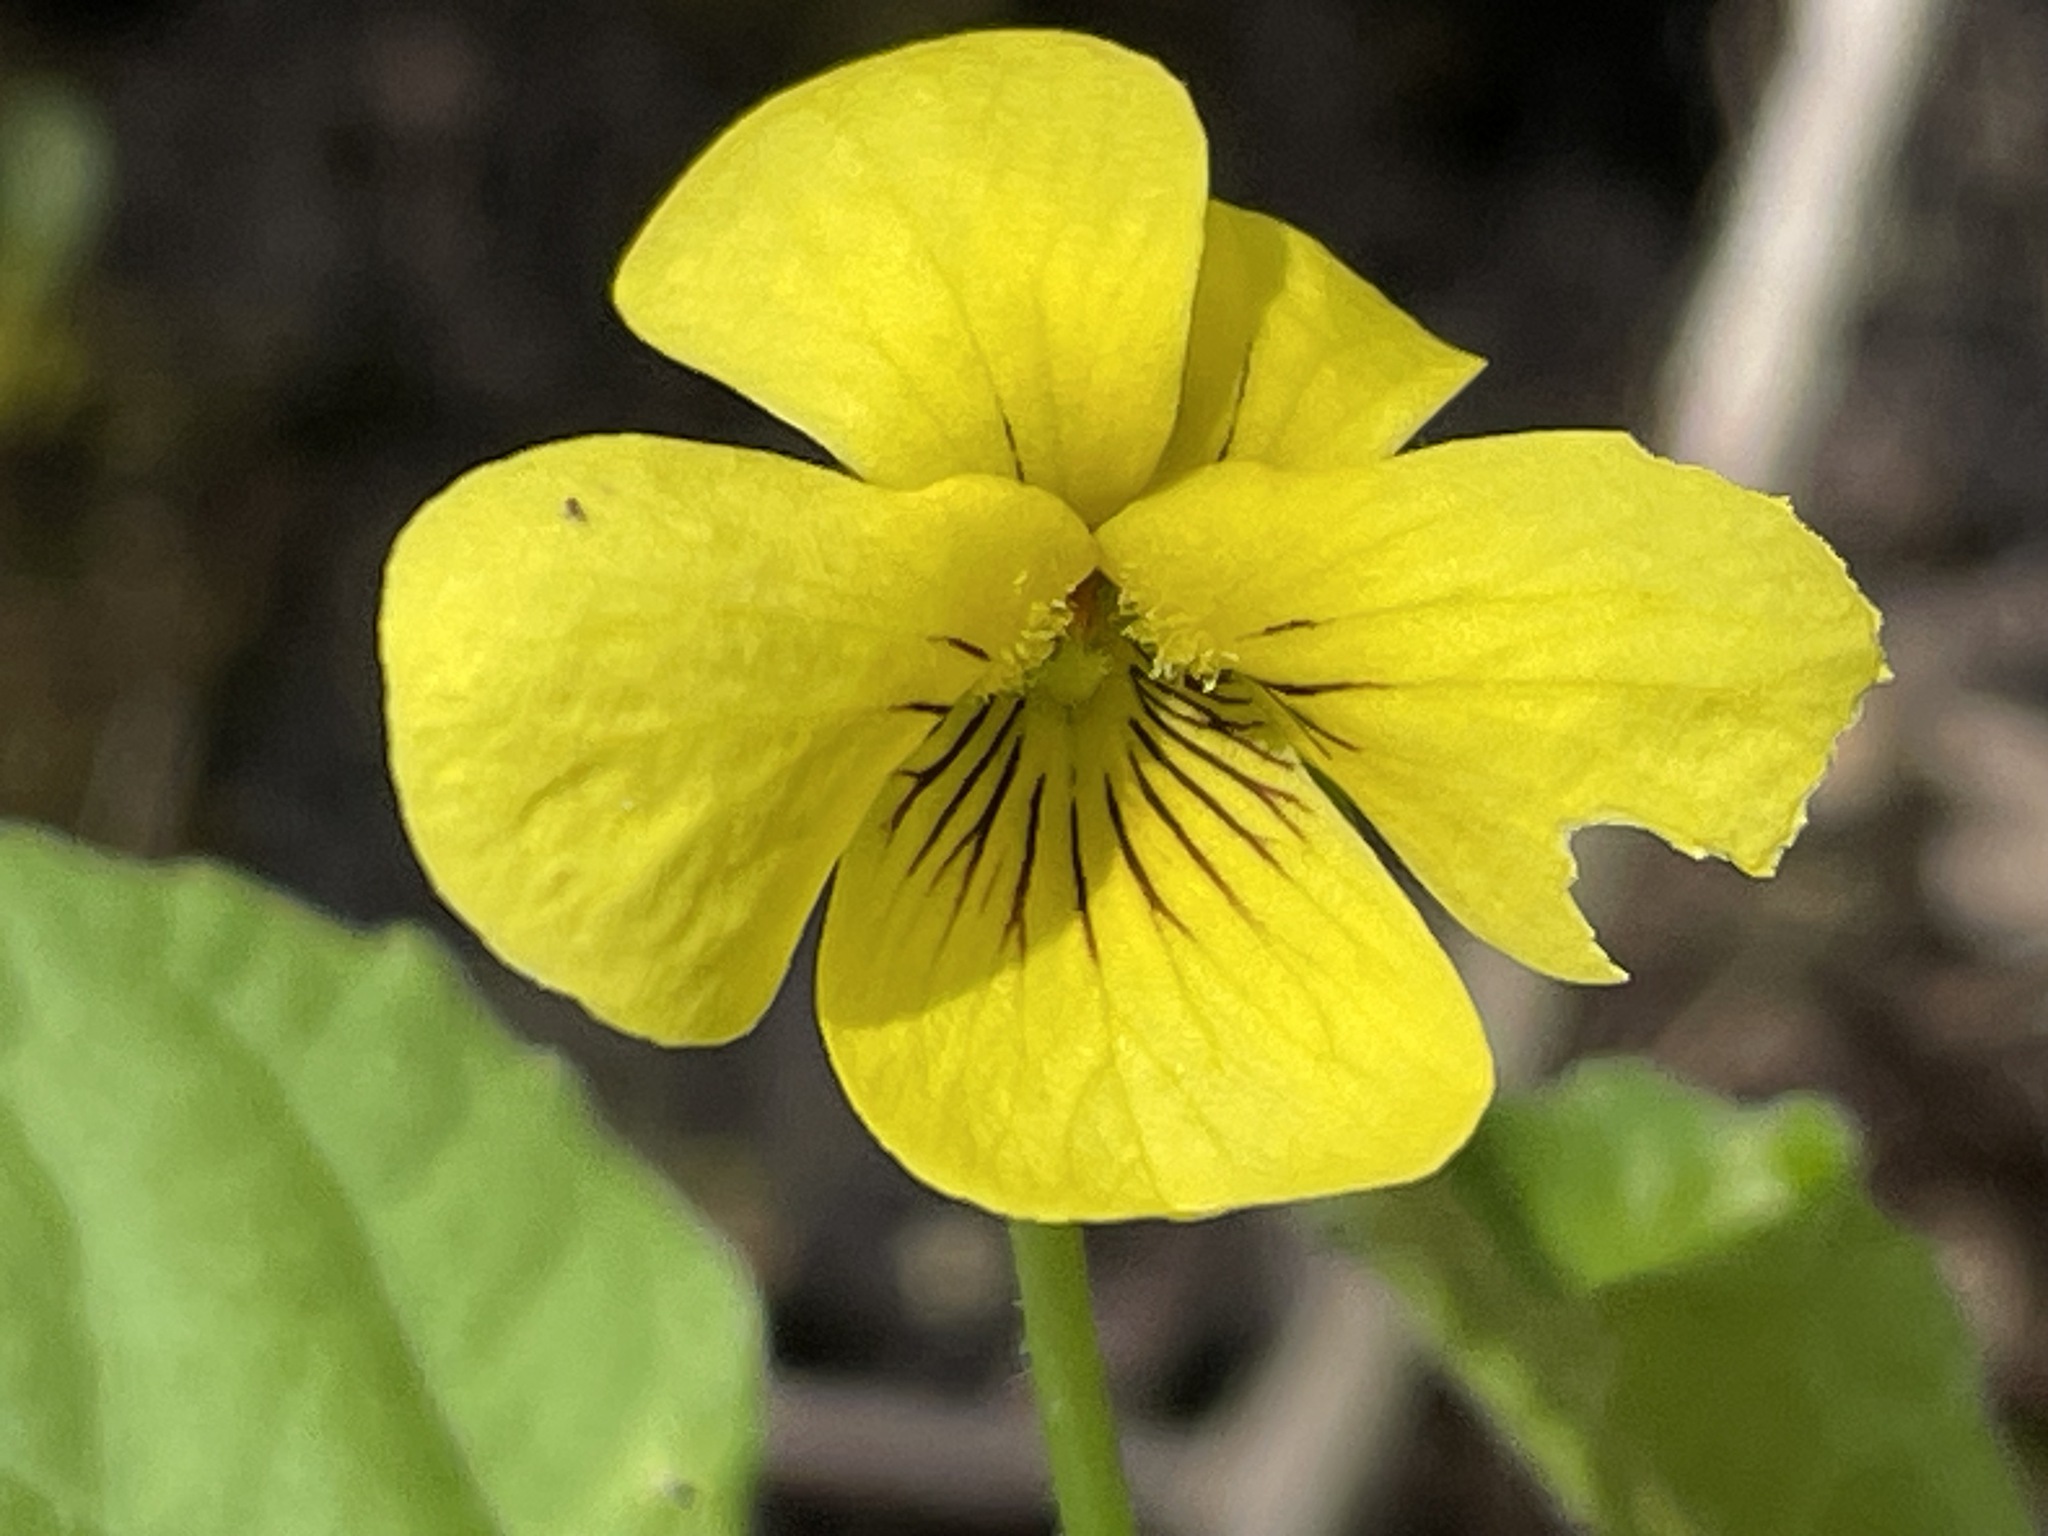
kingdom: Plantae
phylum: Tracheophyta
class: Magnoliopsida
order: Malpighiales
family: Violaceae
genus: Viola
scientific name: Viola eriocarpa
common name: Smooth yellow violet
